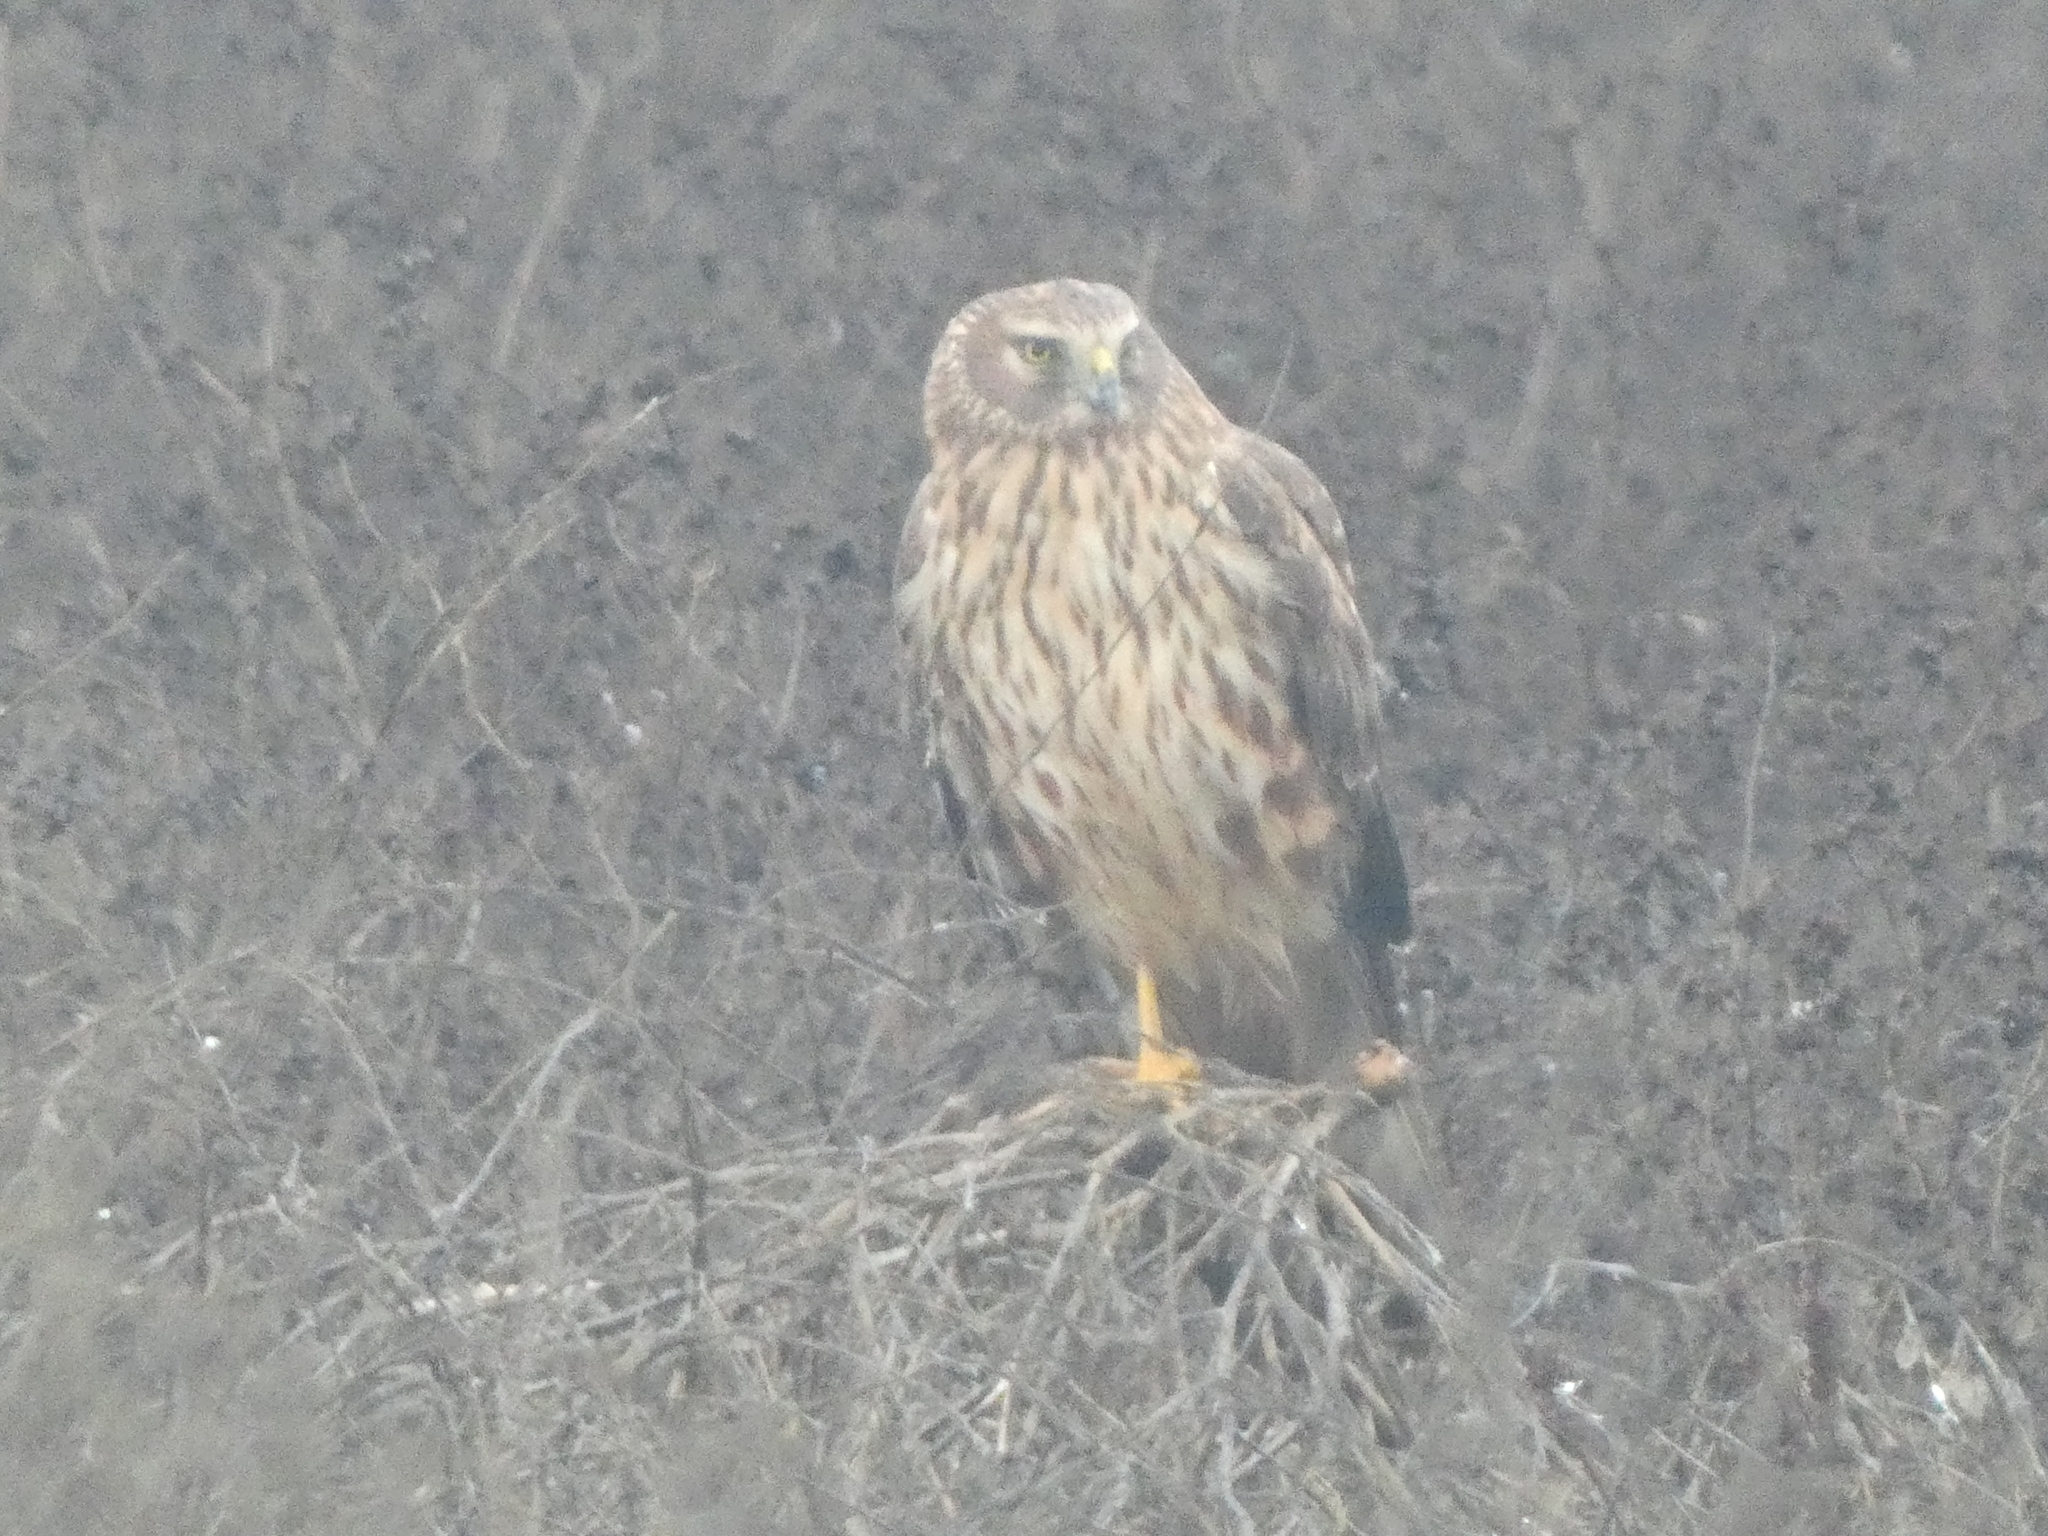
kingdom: Animalia
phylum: Chordata
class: Aves
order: Accipitriformes
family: Accipitridae
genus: Circus
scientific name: Circus cyaneus
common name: Hen harrier
